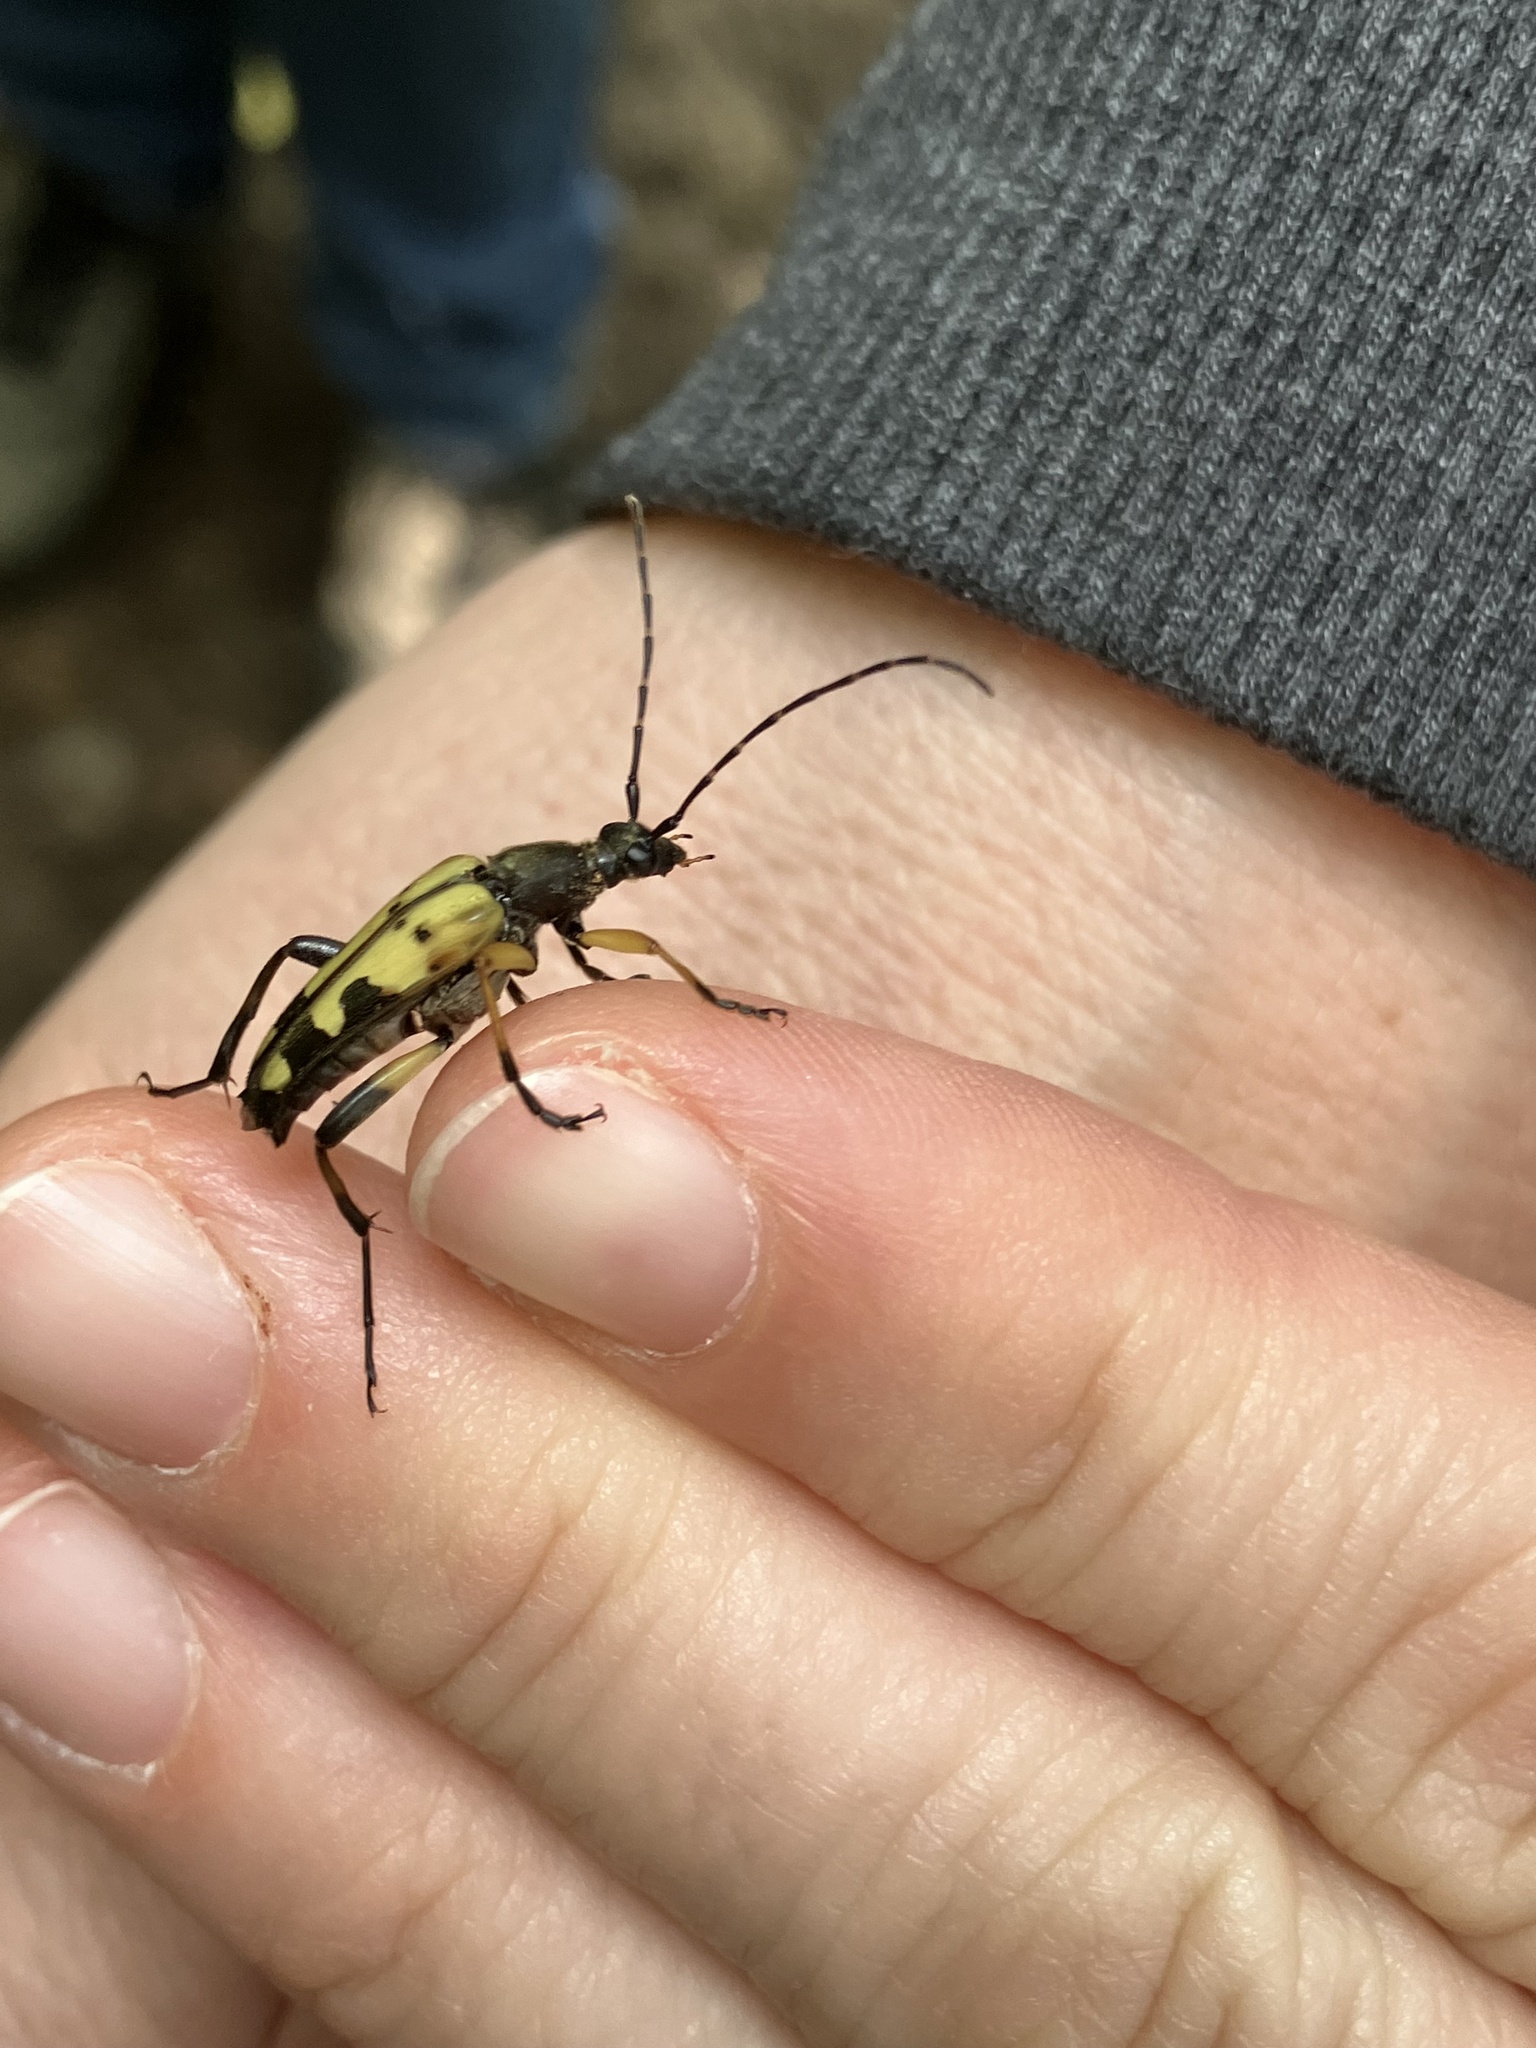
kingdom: Animalia
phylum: Arthropoda
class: Insecta
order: Coleoptera
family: Cerambycidae
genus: Rutpela
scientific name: Rutpela maculata
